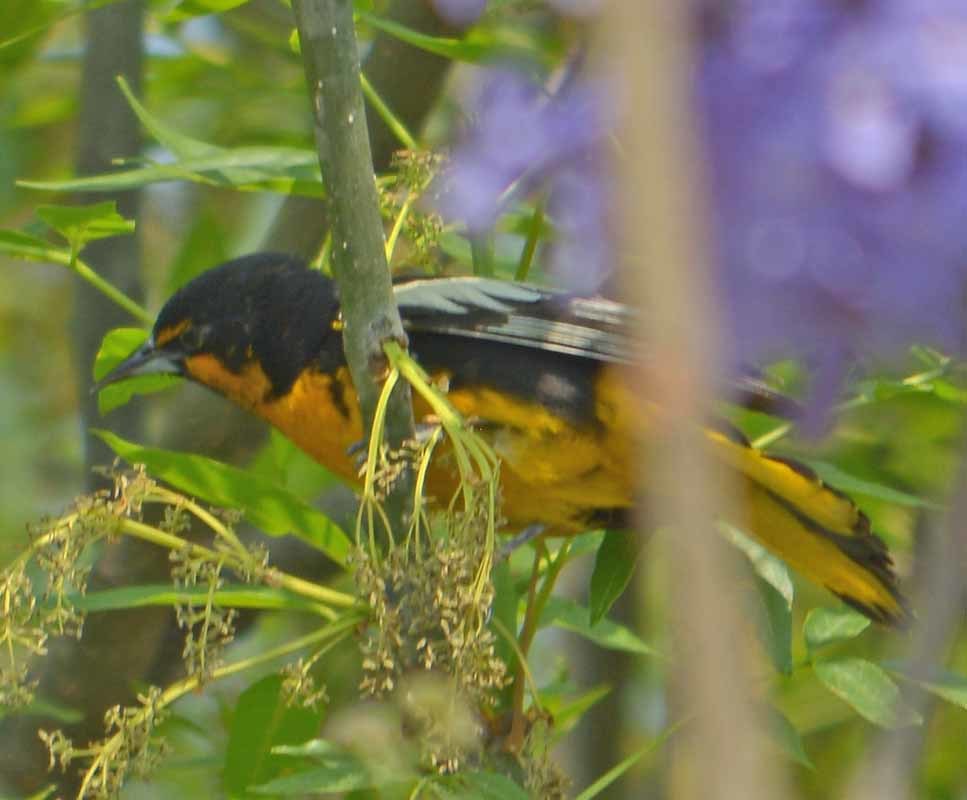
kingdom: Animalia
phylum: Chordata
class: Aves
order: Passeriformes
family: Icteridae
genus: Icterus
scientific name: Icterus abeillei
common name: Black-backed oriole
